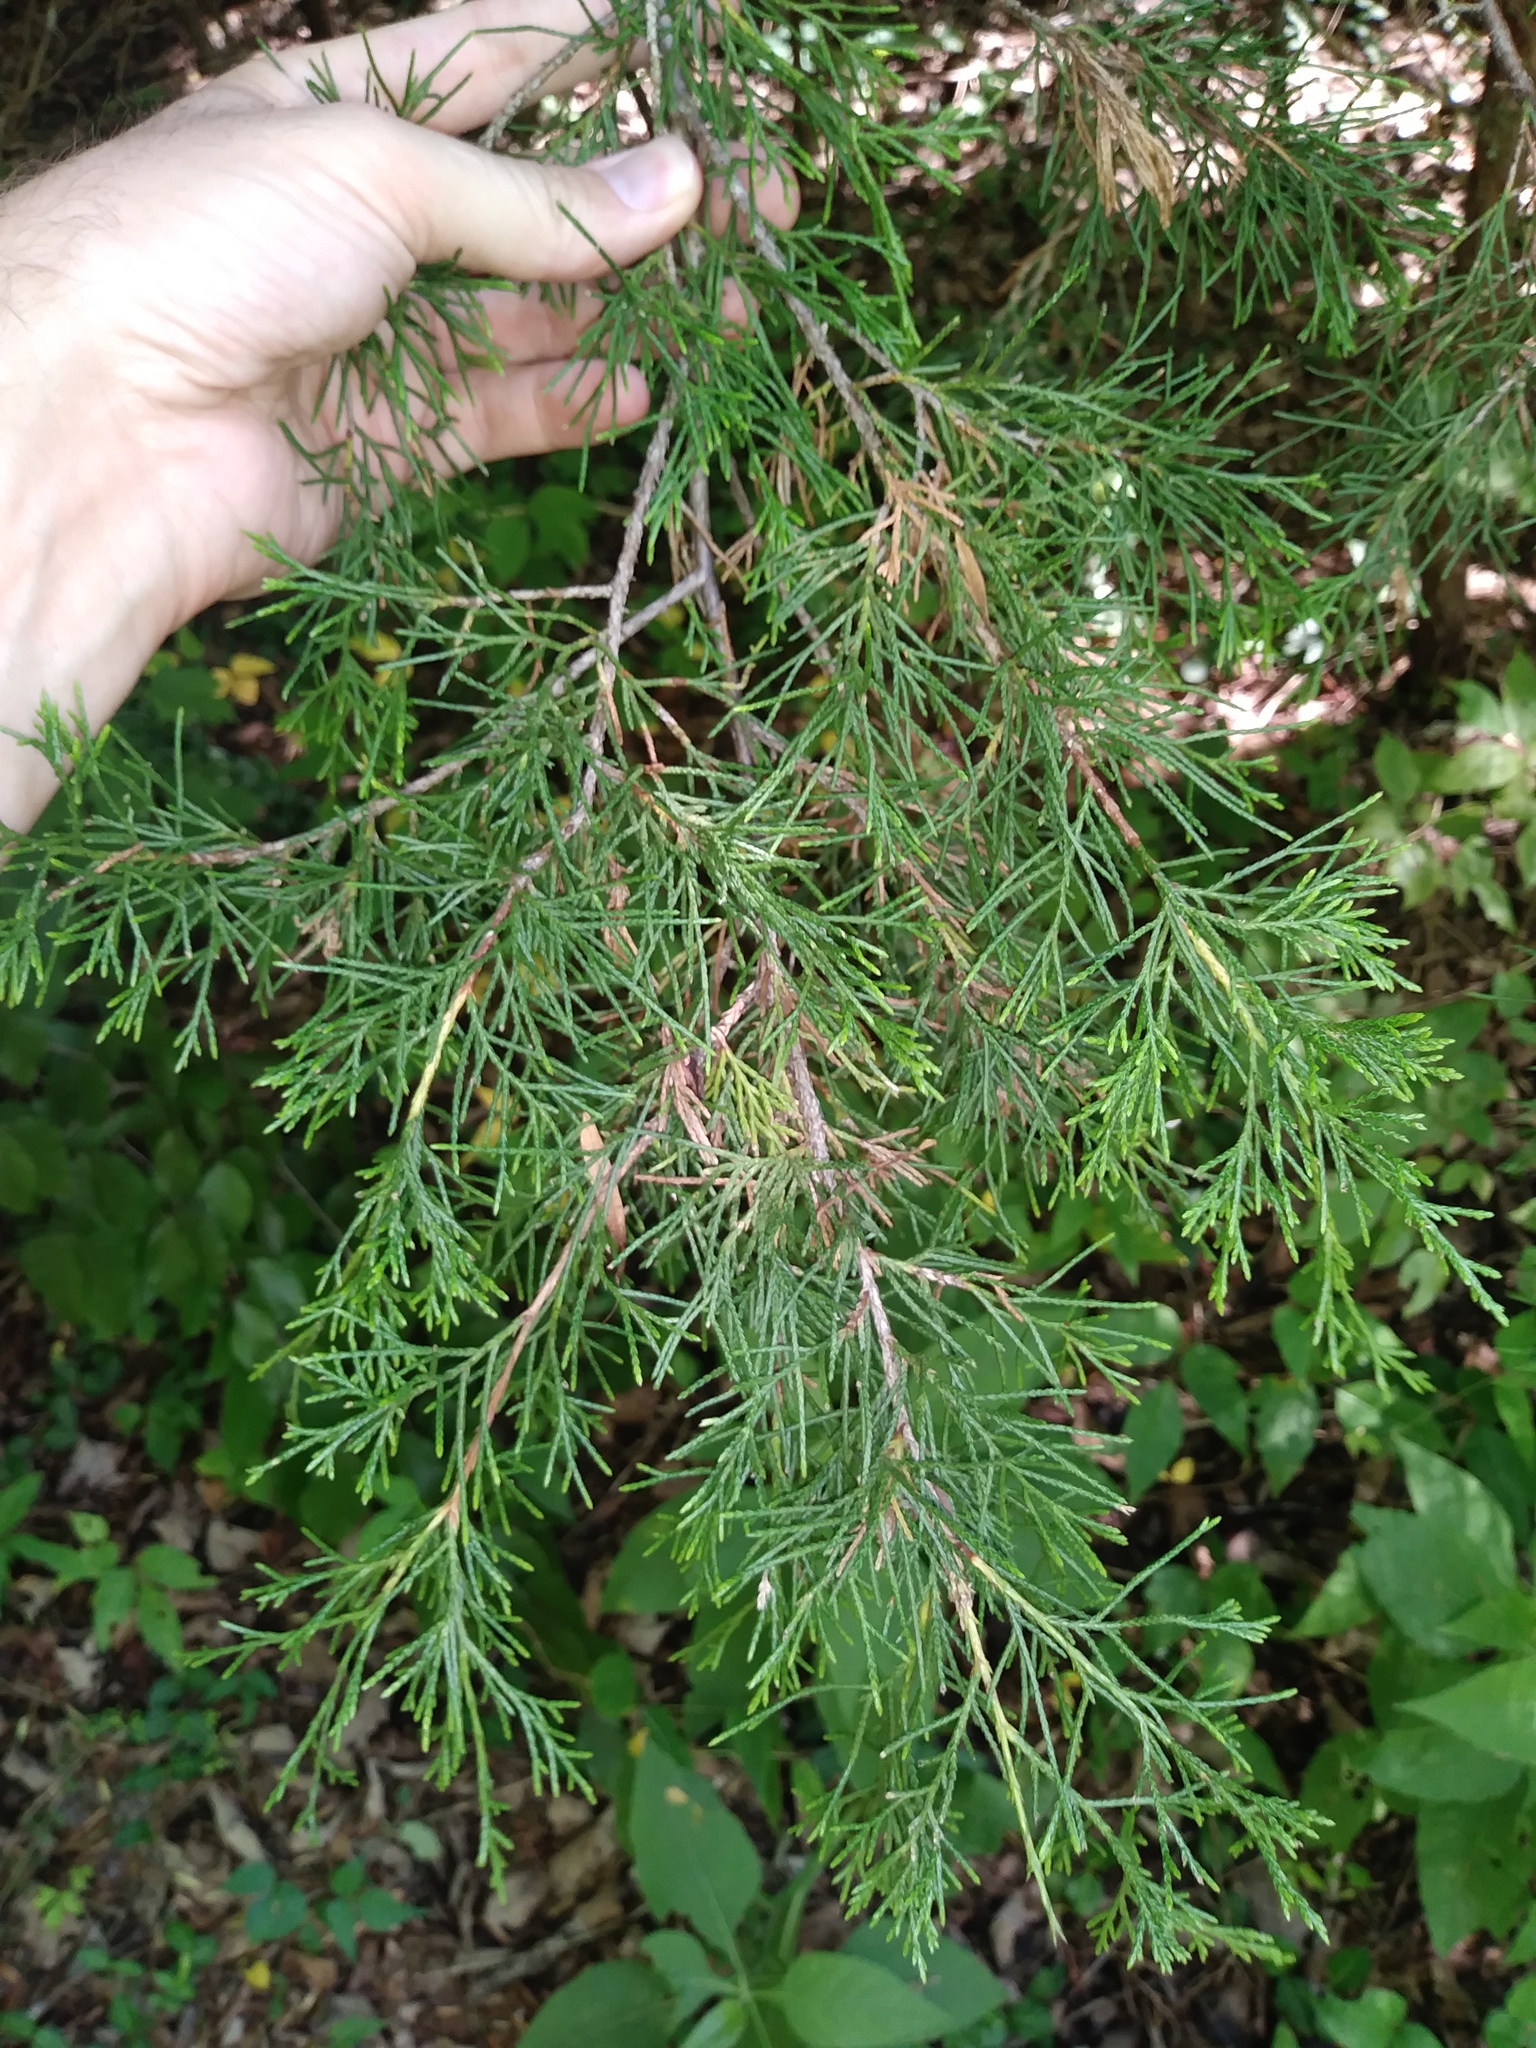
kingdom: Plantae
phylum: Tracheophyta
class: Pinopsida
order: Pinales
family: Cupressaceae
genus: Juniperus
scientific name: Juniperus virginiana
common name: Red juniper
